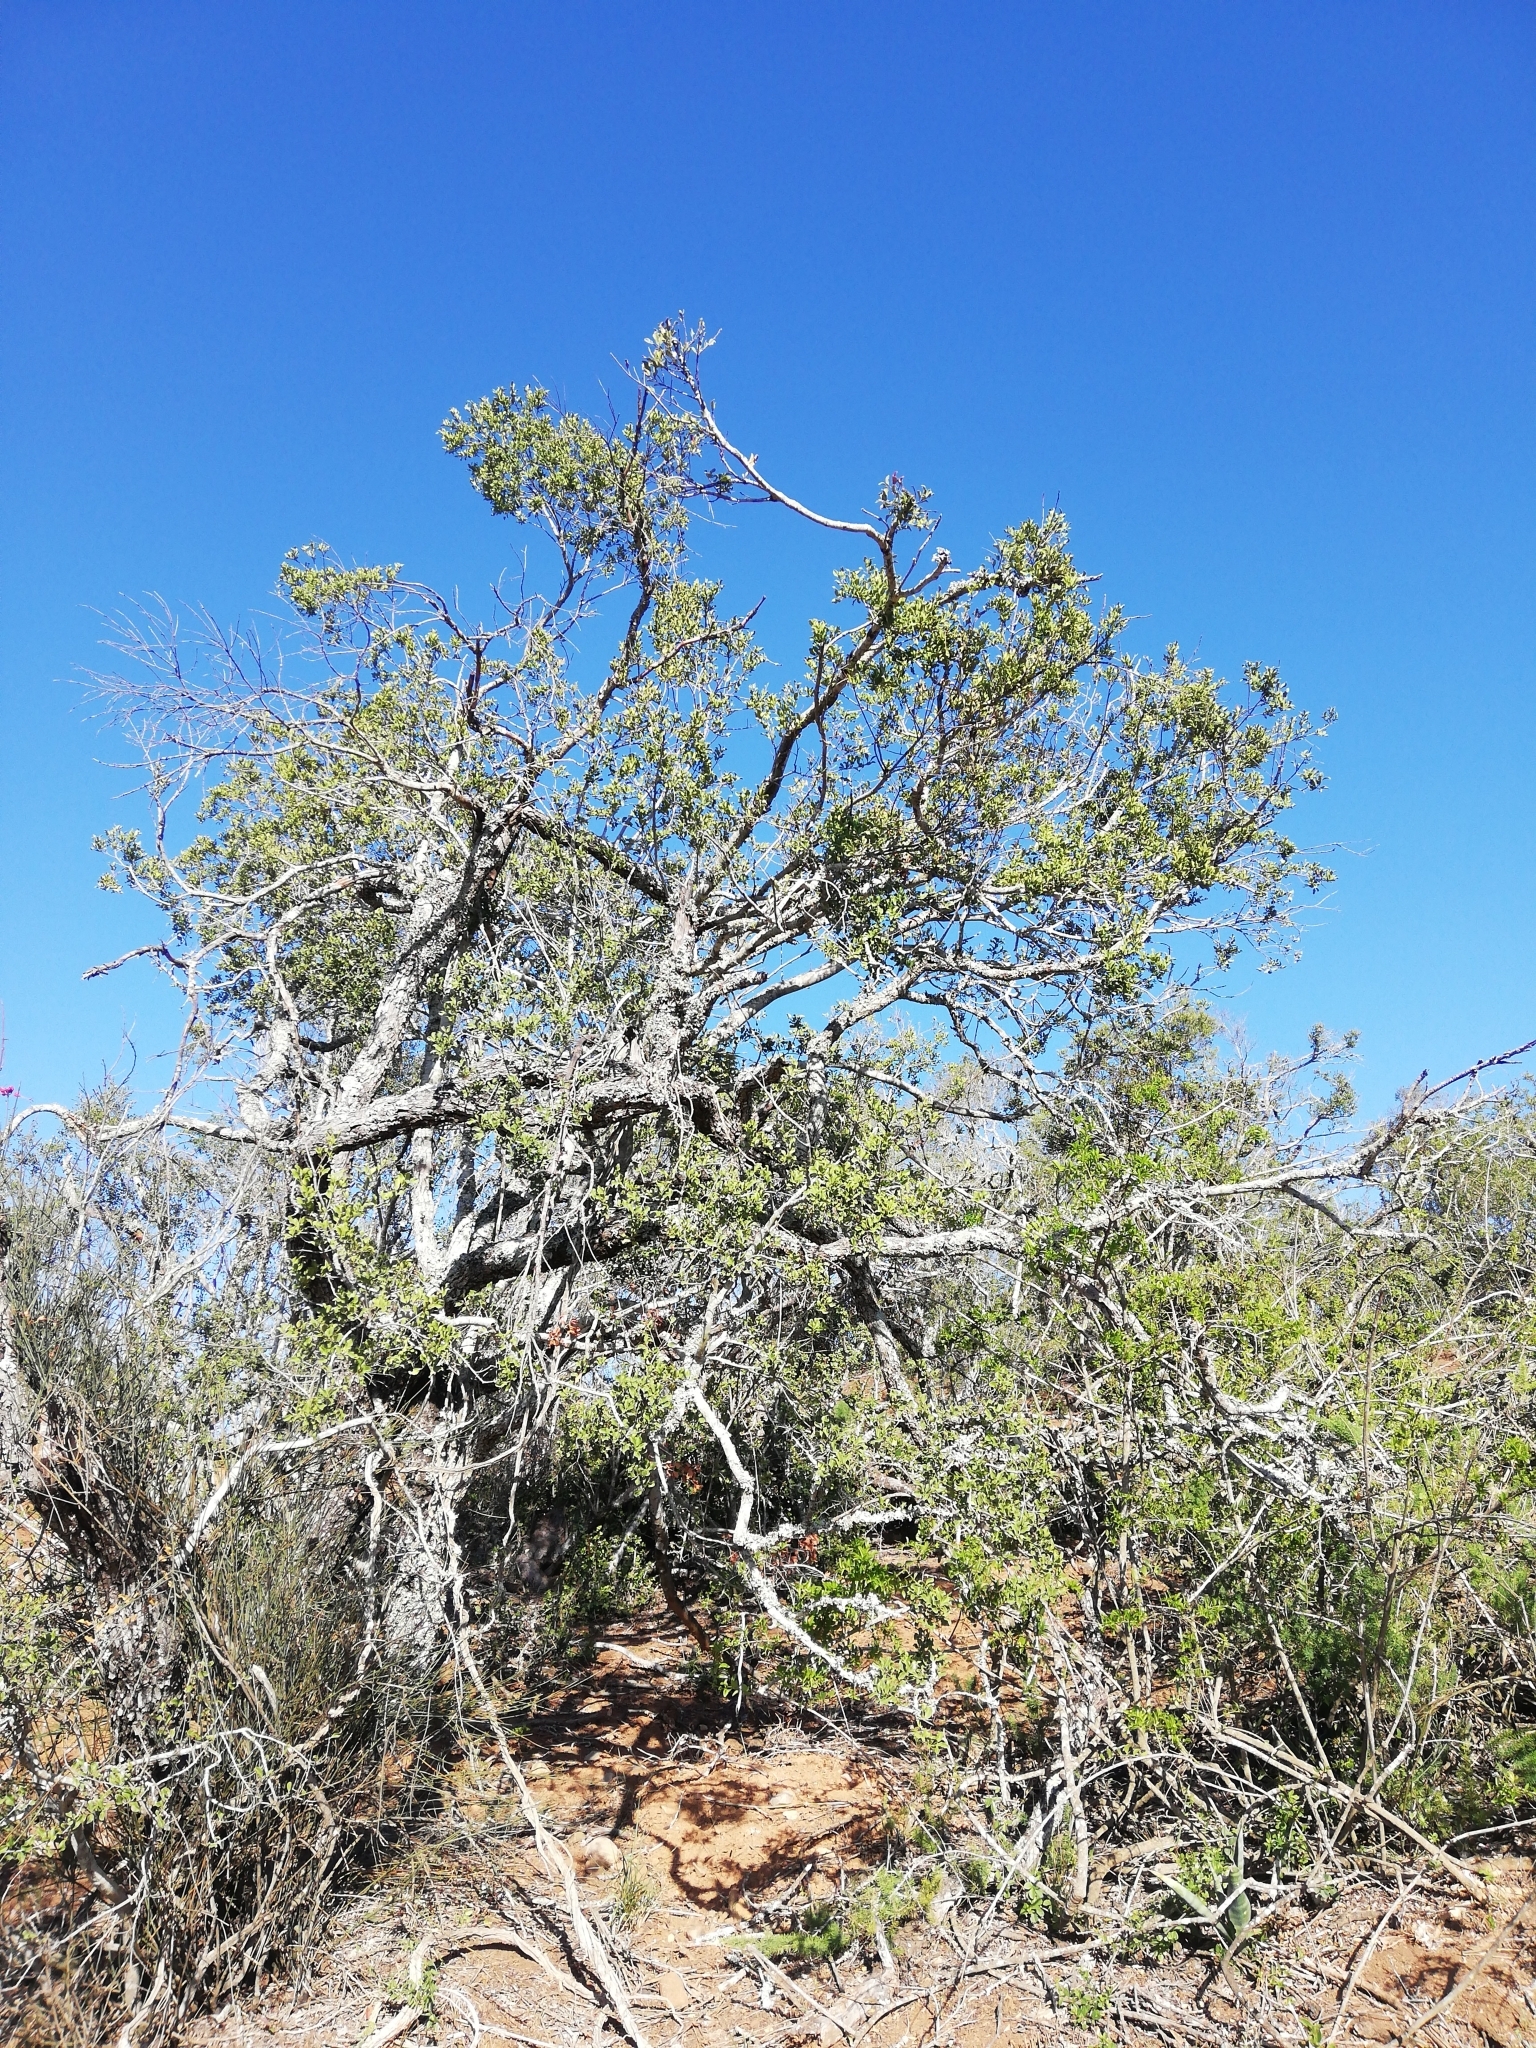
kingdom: Plantae
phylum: Tracheophyta
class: Magnoliopsida
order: Ericales
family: Ebenaceae
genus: Euclea
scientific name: Euclea undulata
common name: Small-leaved guarri
